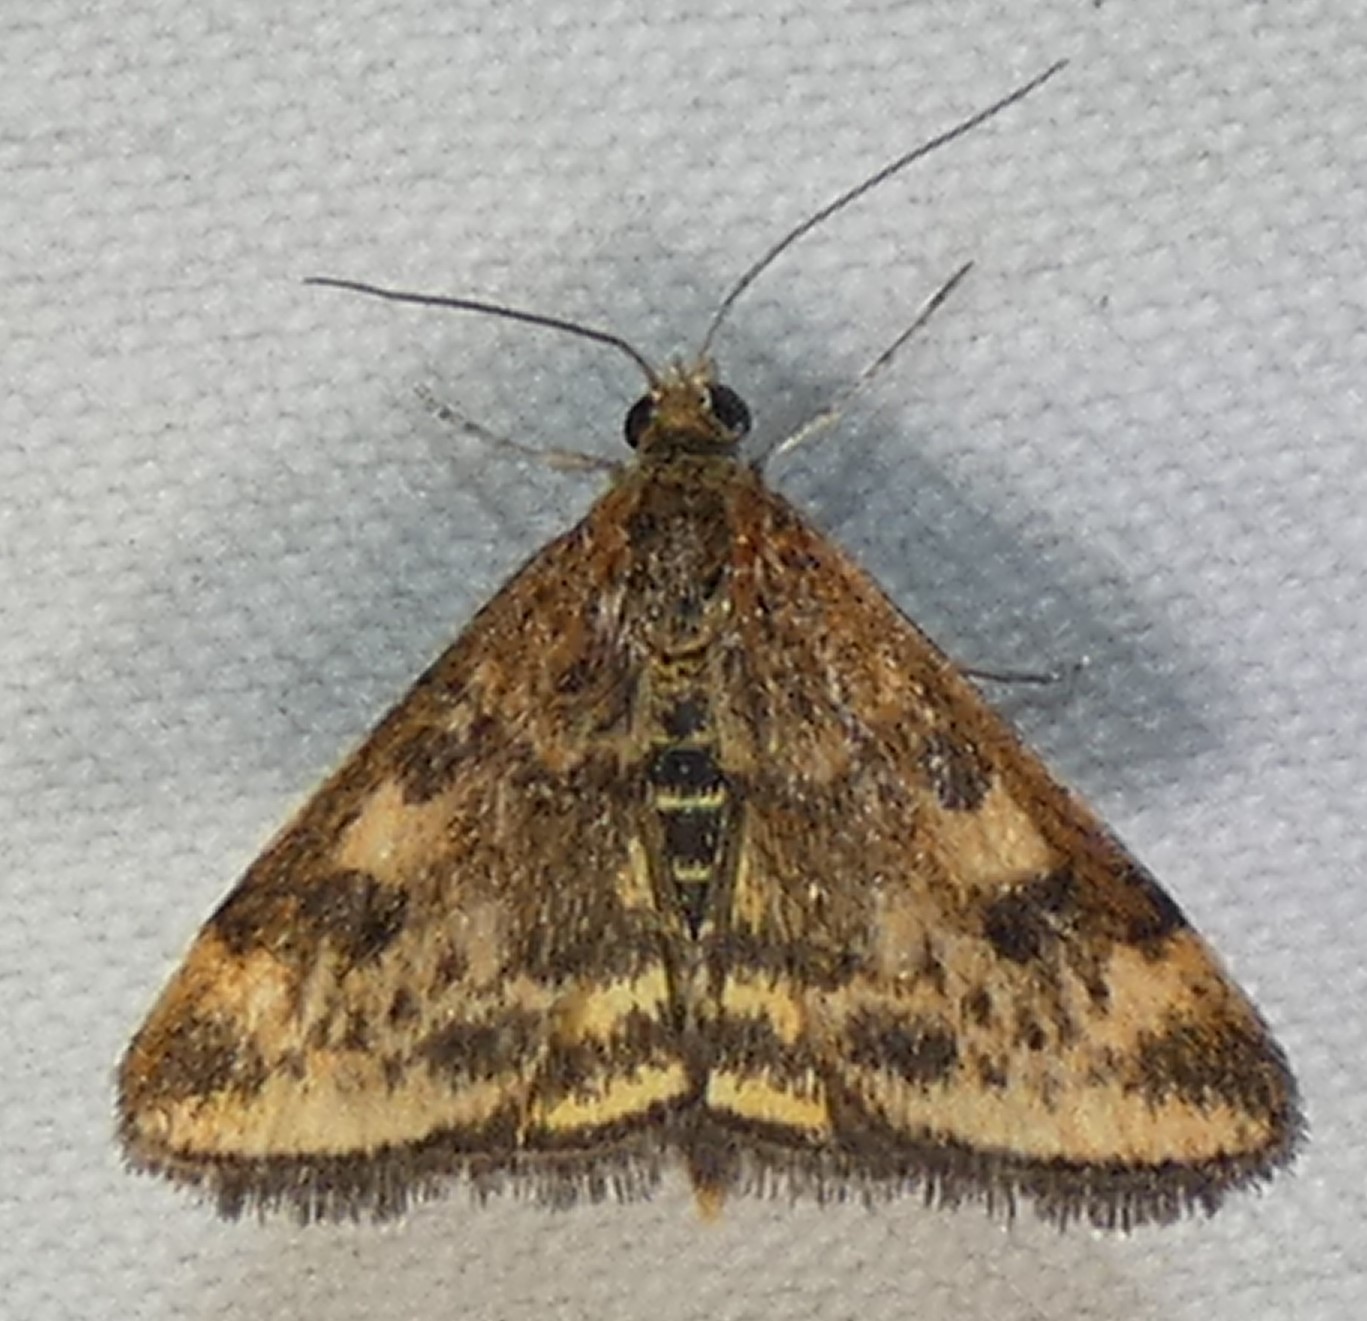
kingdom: Animalia
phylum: Arthropoda
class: Insecta
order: Lepidoptera
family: Crambidae
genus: Pyrausta
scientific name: Pyrausta subsequalis
